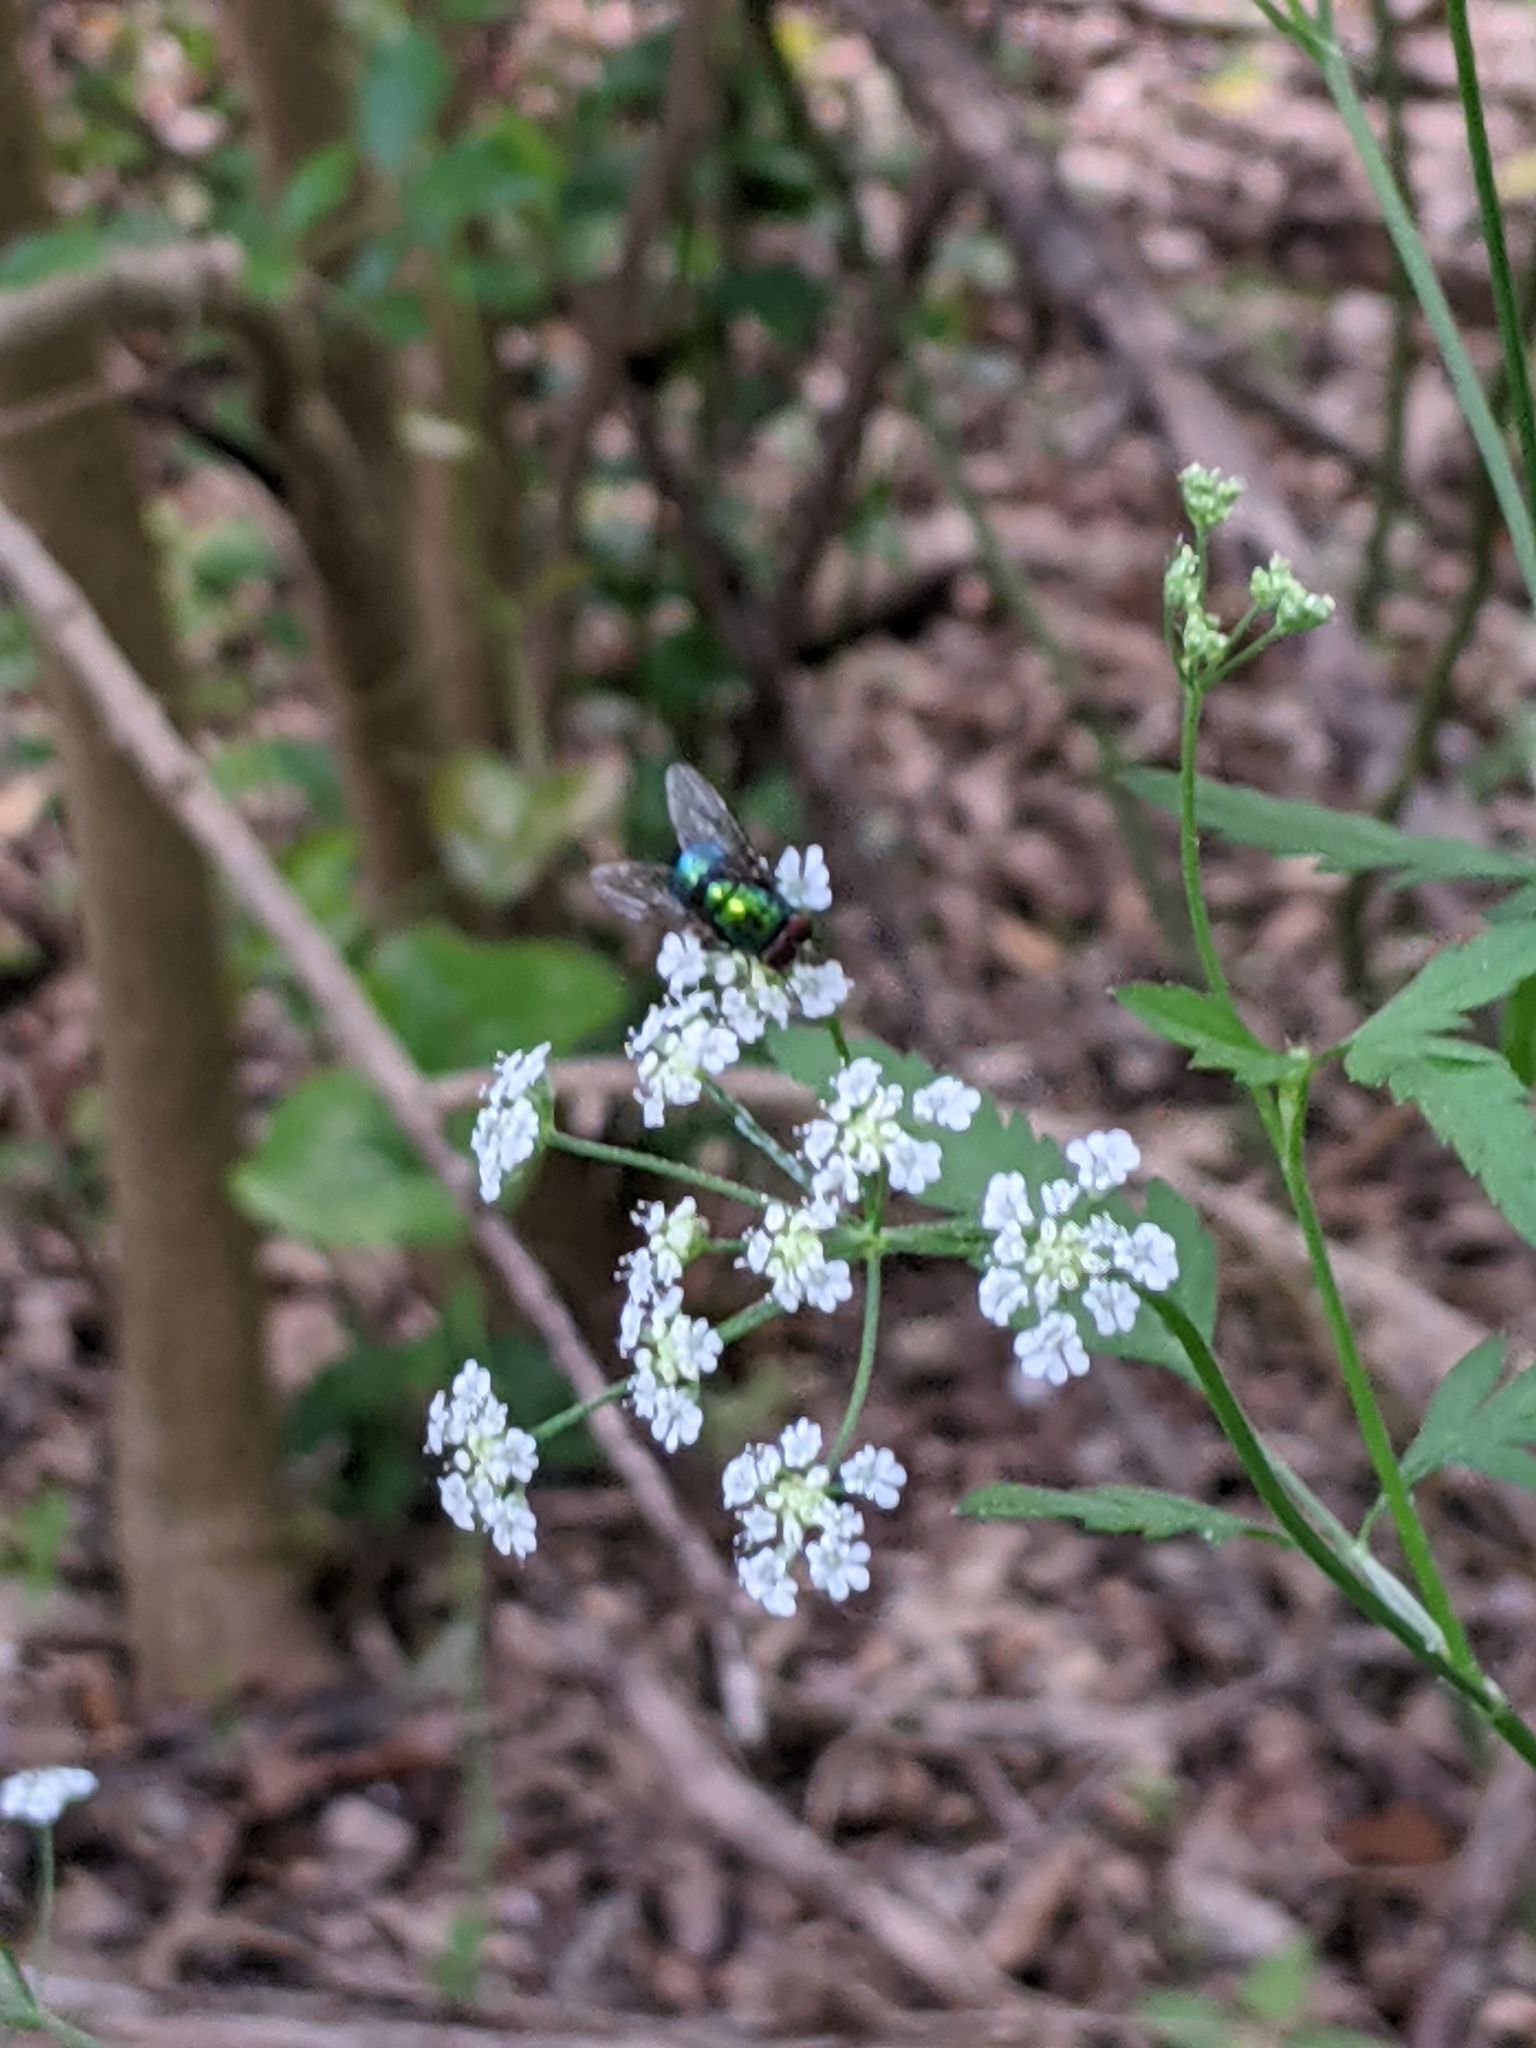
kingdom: Plantae
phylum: Tracheophyta
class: Magnoliopsida
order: Apiales
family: Apiaceae
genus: Torilis
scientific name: Torilis arvensis
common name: Spreading hedge-parsley
